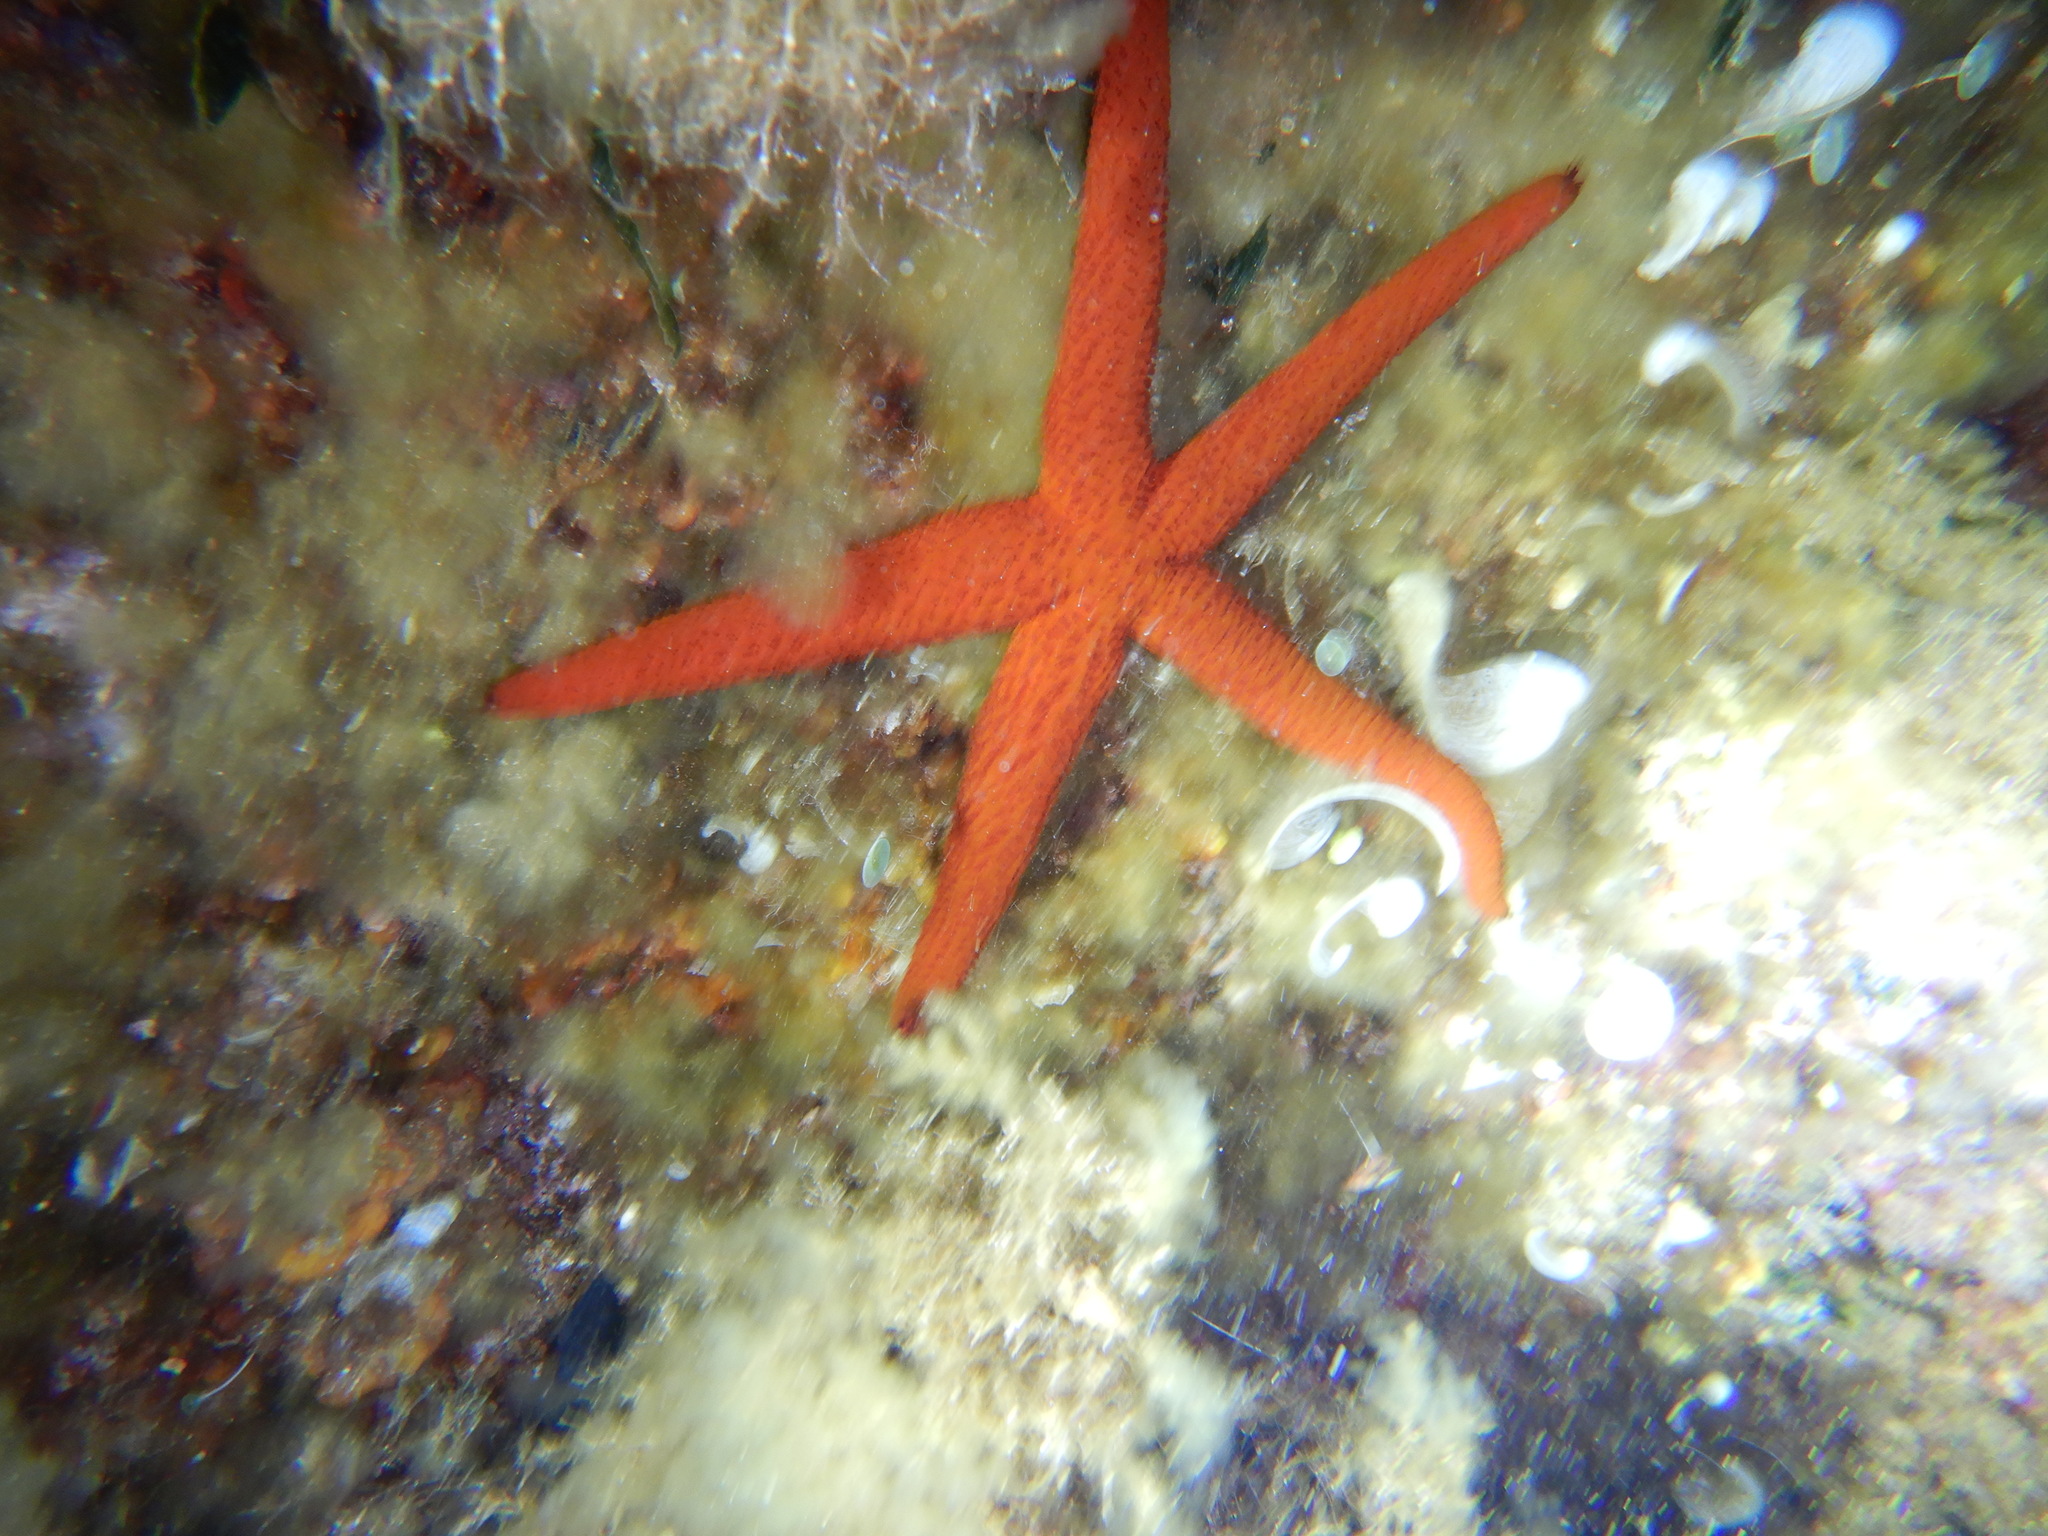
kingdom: Animalia
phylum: Echinodermata
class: Asteroidea
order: Spinulosida
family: Echinasteridae
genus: Echinaster
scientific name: Echinaster sepositus
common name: Red starfish
